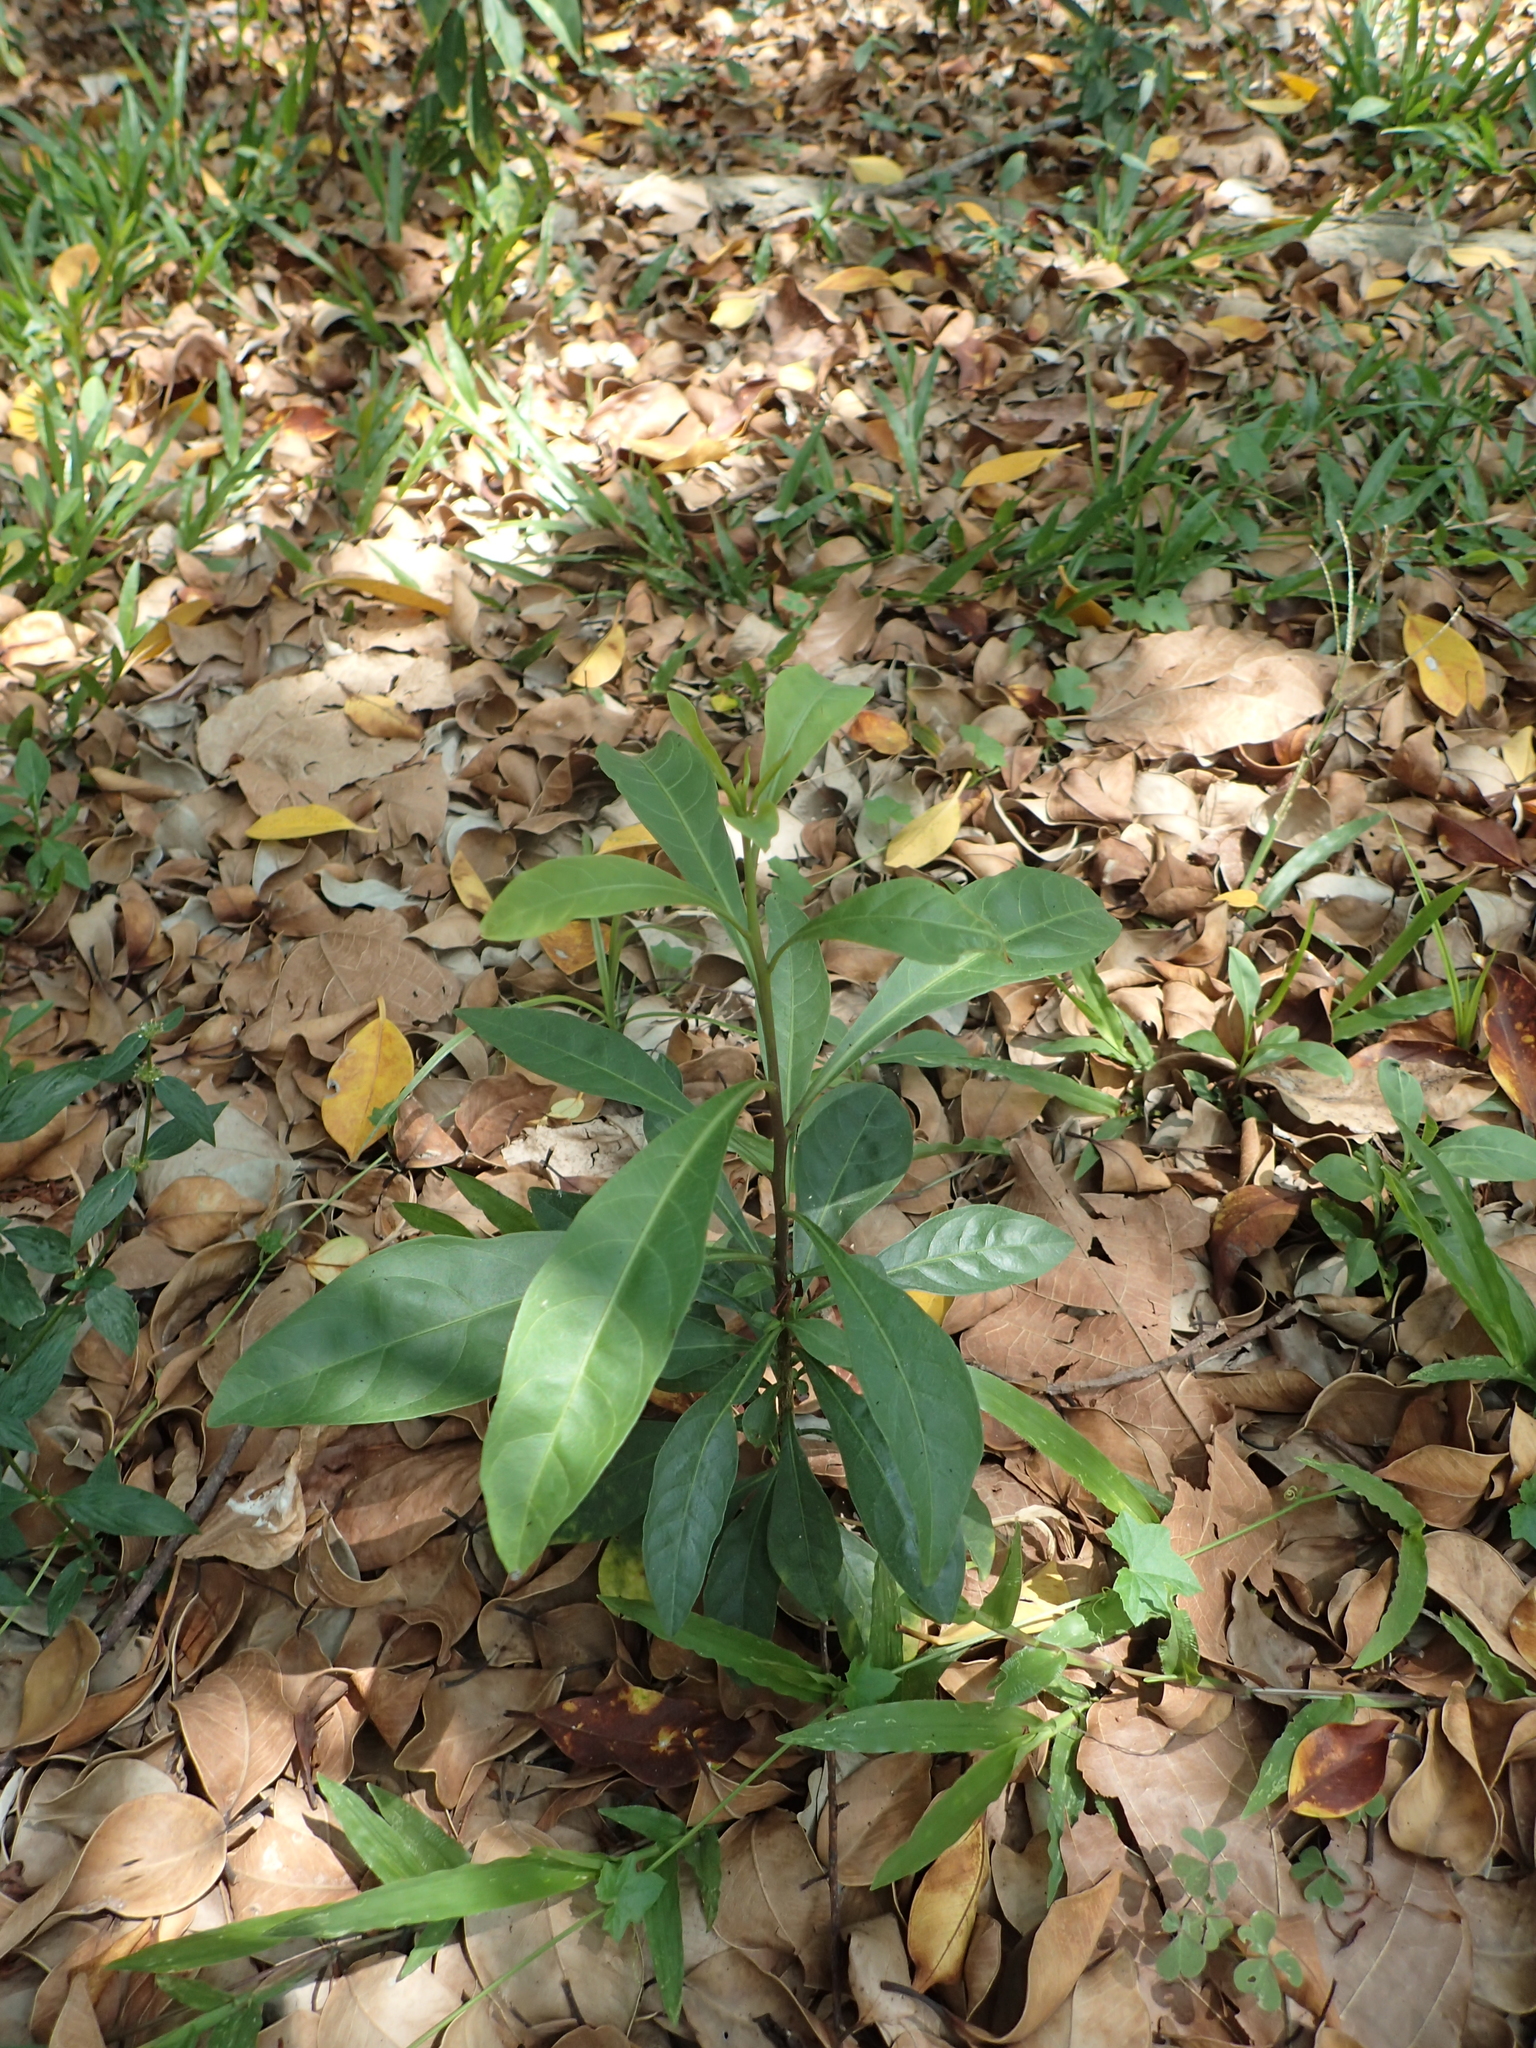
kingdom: Plantae
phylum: Tracheophyta
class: Magnoliopsida
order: Solanales
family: Solanaceae
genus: Solanum
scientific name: Solanum diphyllum
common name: Twoleaf nightshade
